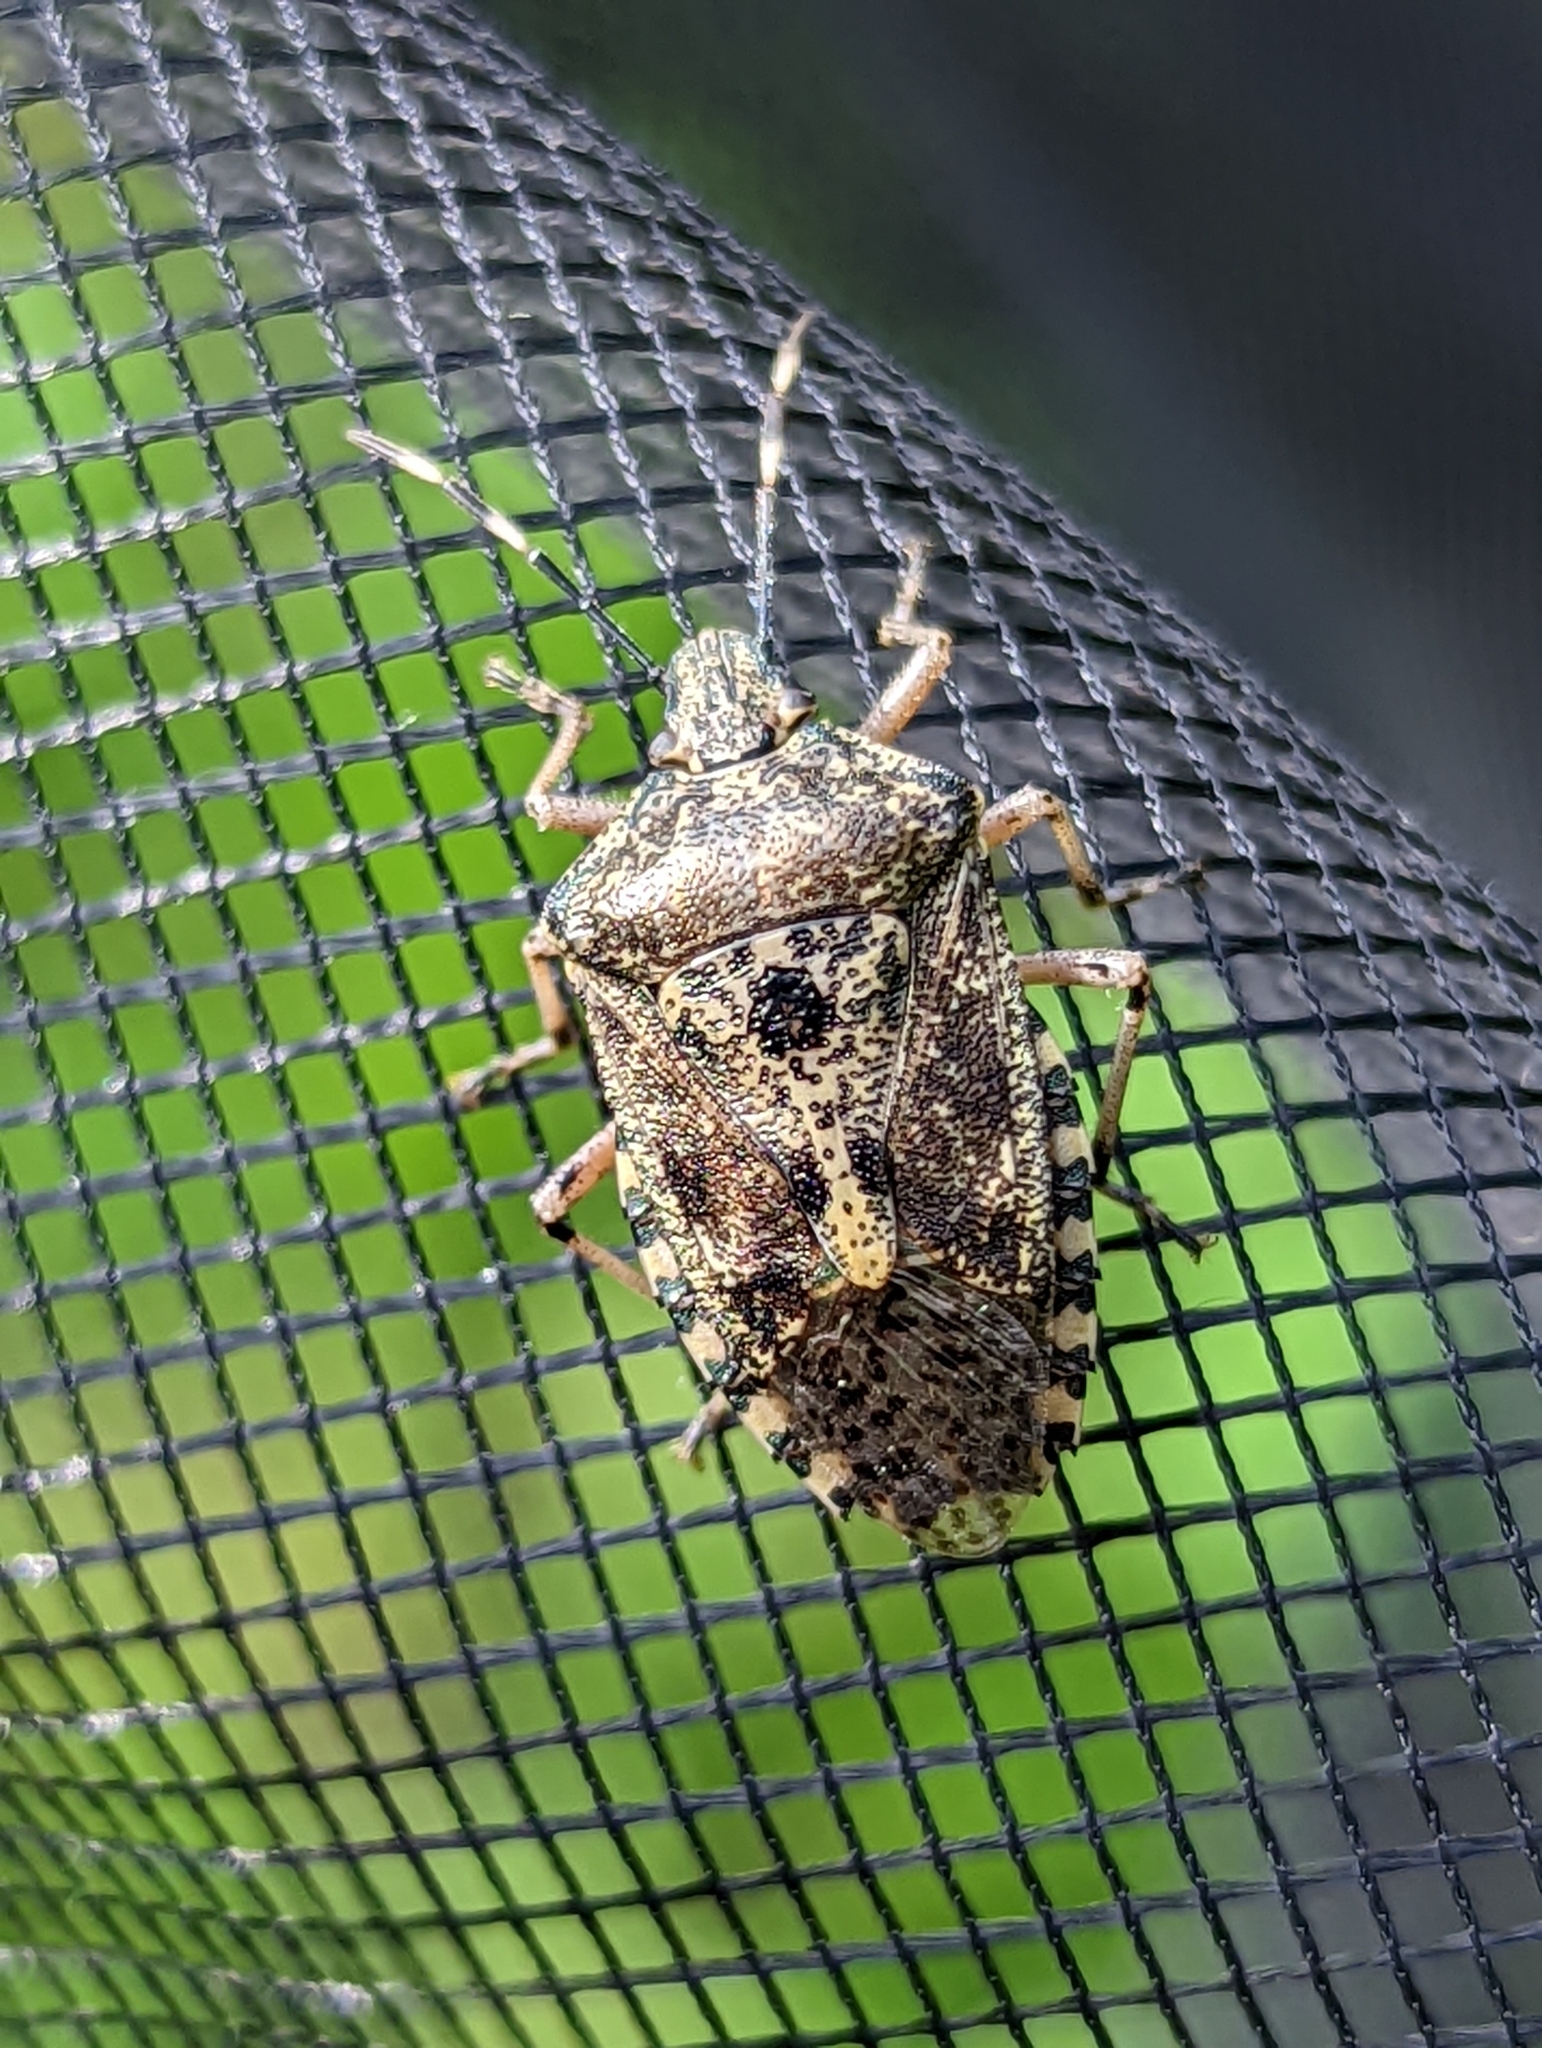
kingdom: Animalia
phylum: Arthropoda
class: Insecta
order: Hemiptera
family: Pentatomidae
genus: Rhaphigaster
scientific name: Rhaphigaster nebulosa
